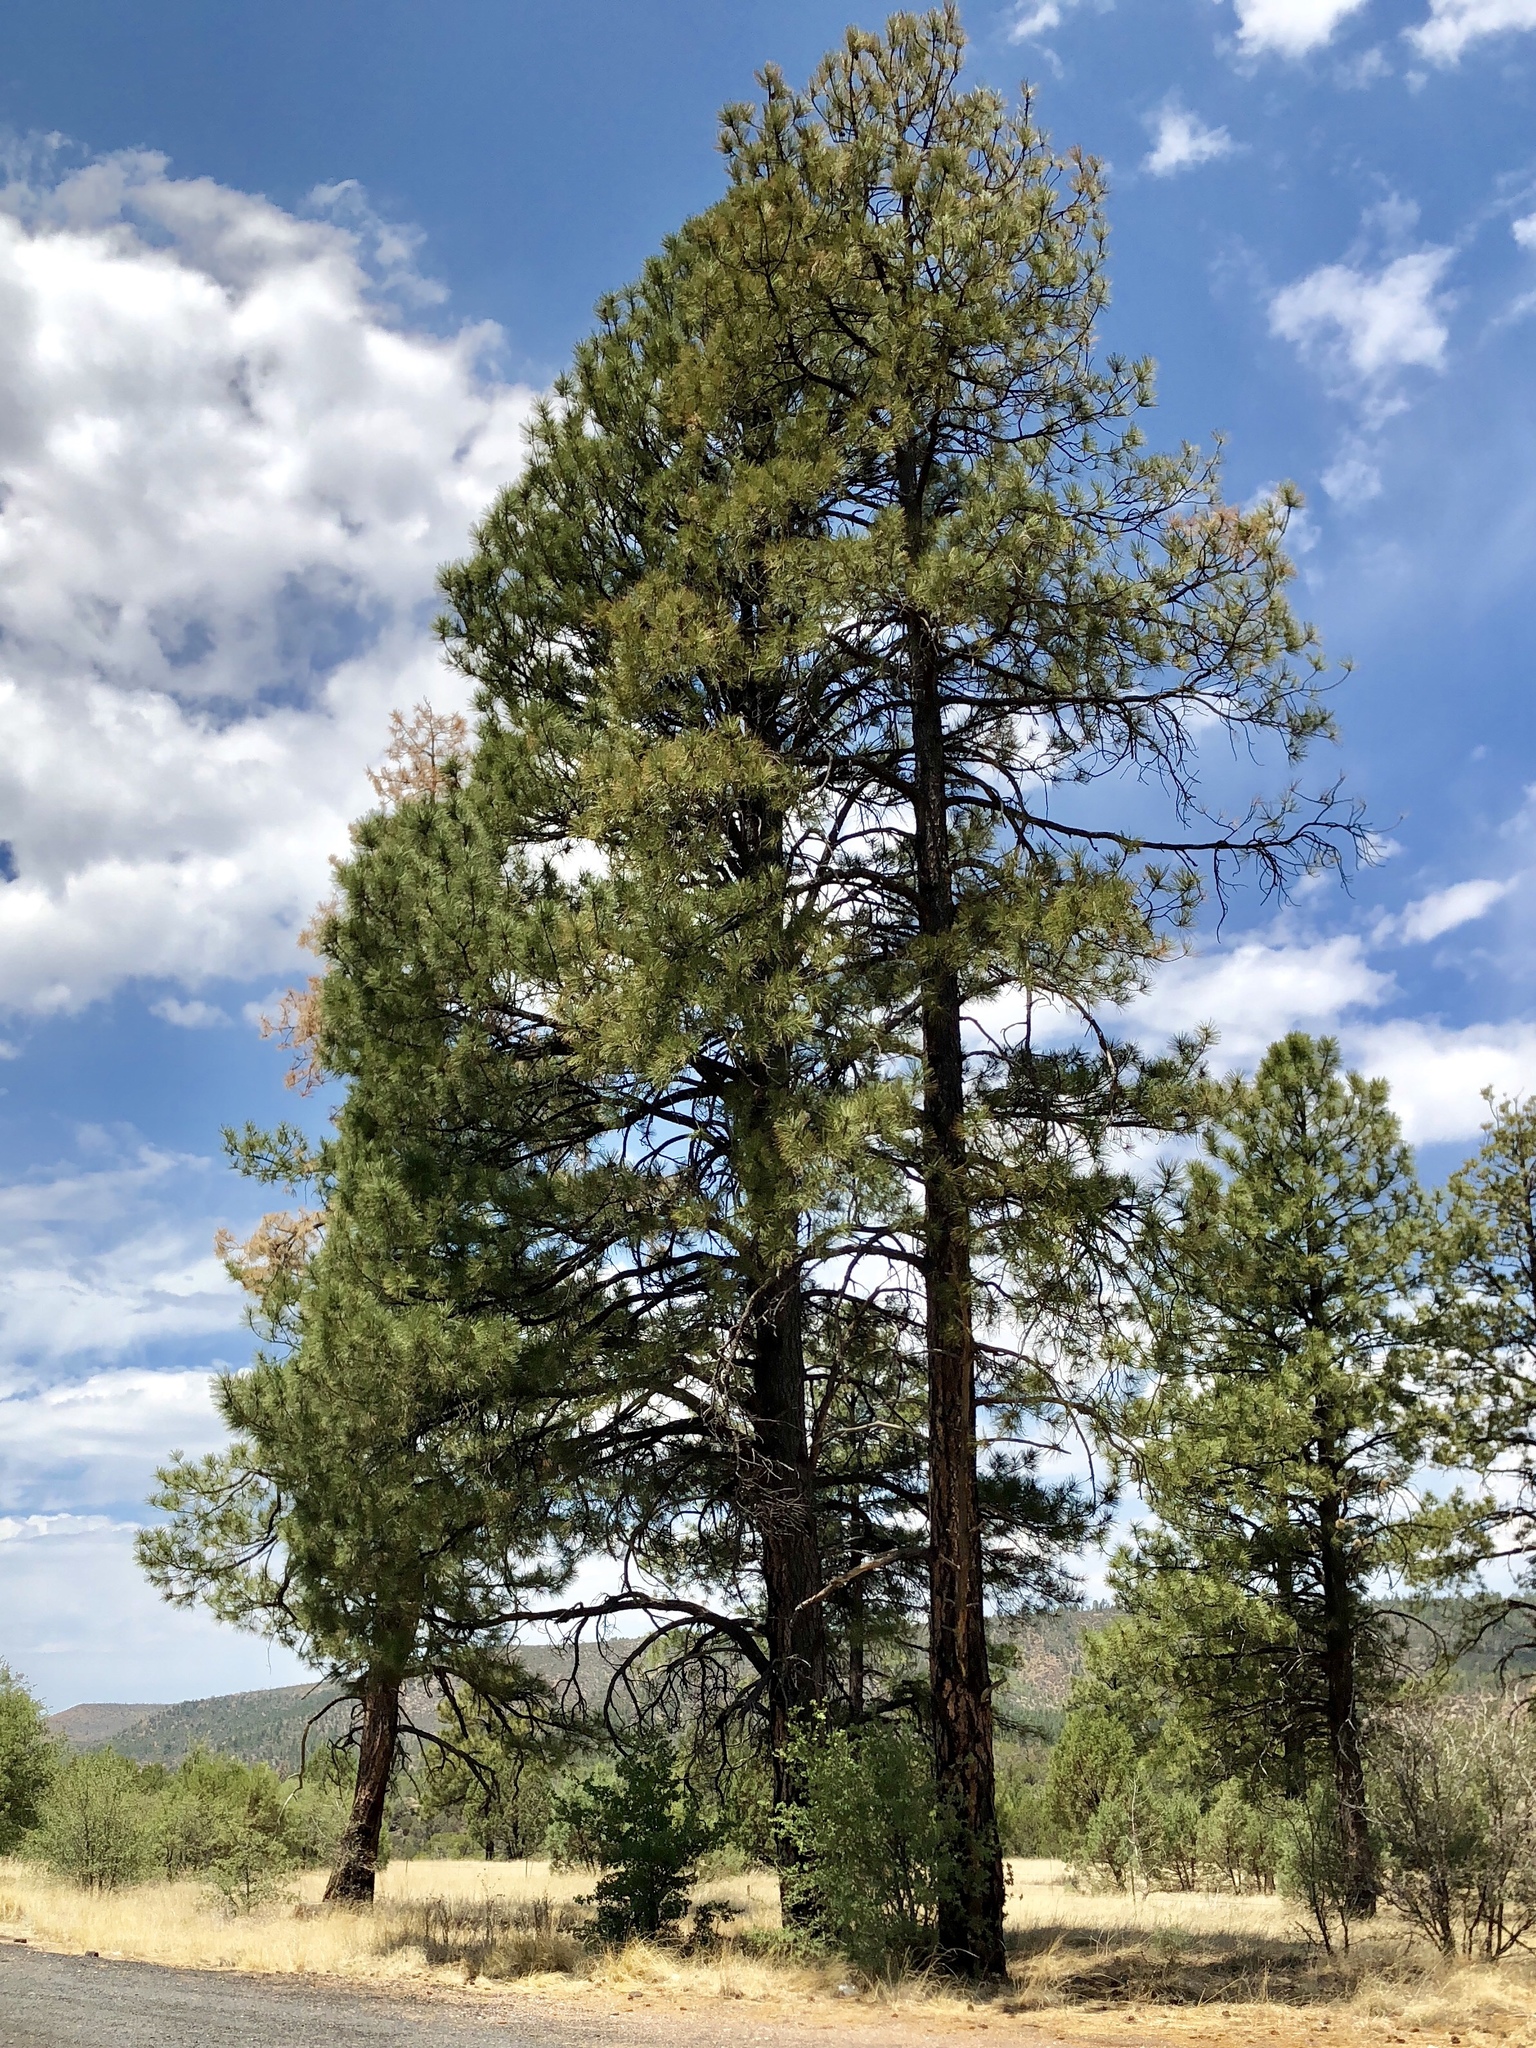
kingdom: Plantae
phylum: Tracheophyta
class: Pinopsida
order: Pinales
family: Pinaceae
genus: Pinus
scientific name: Pinus ponderosa
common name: Western yellow-pine
